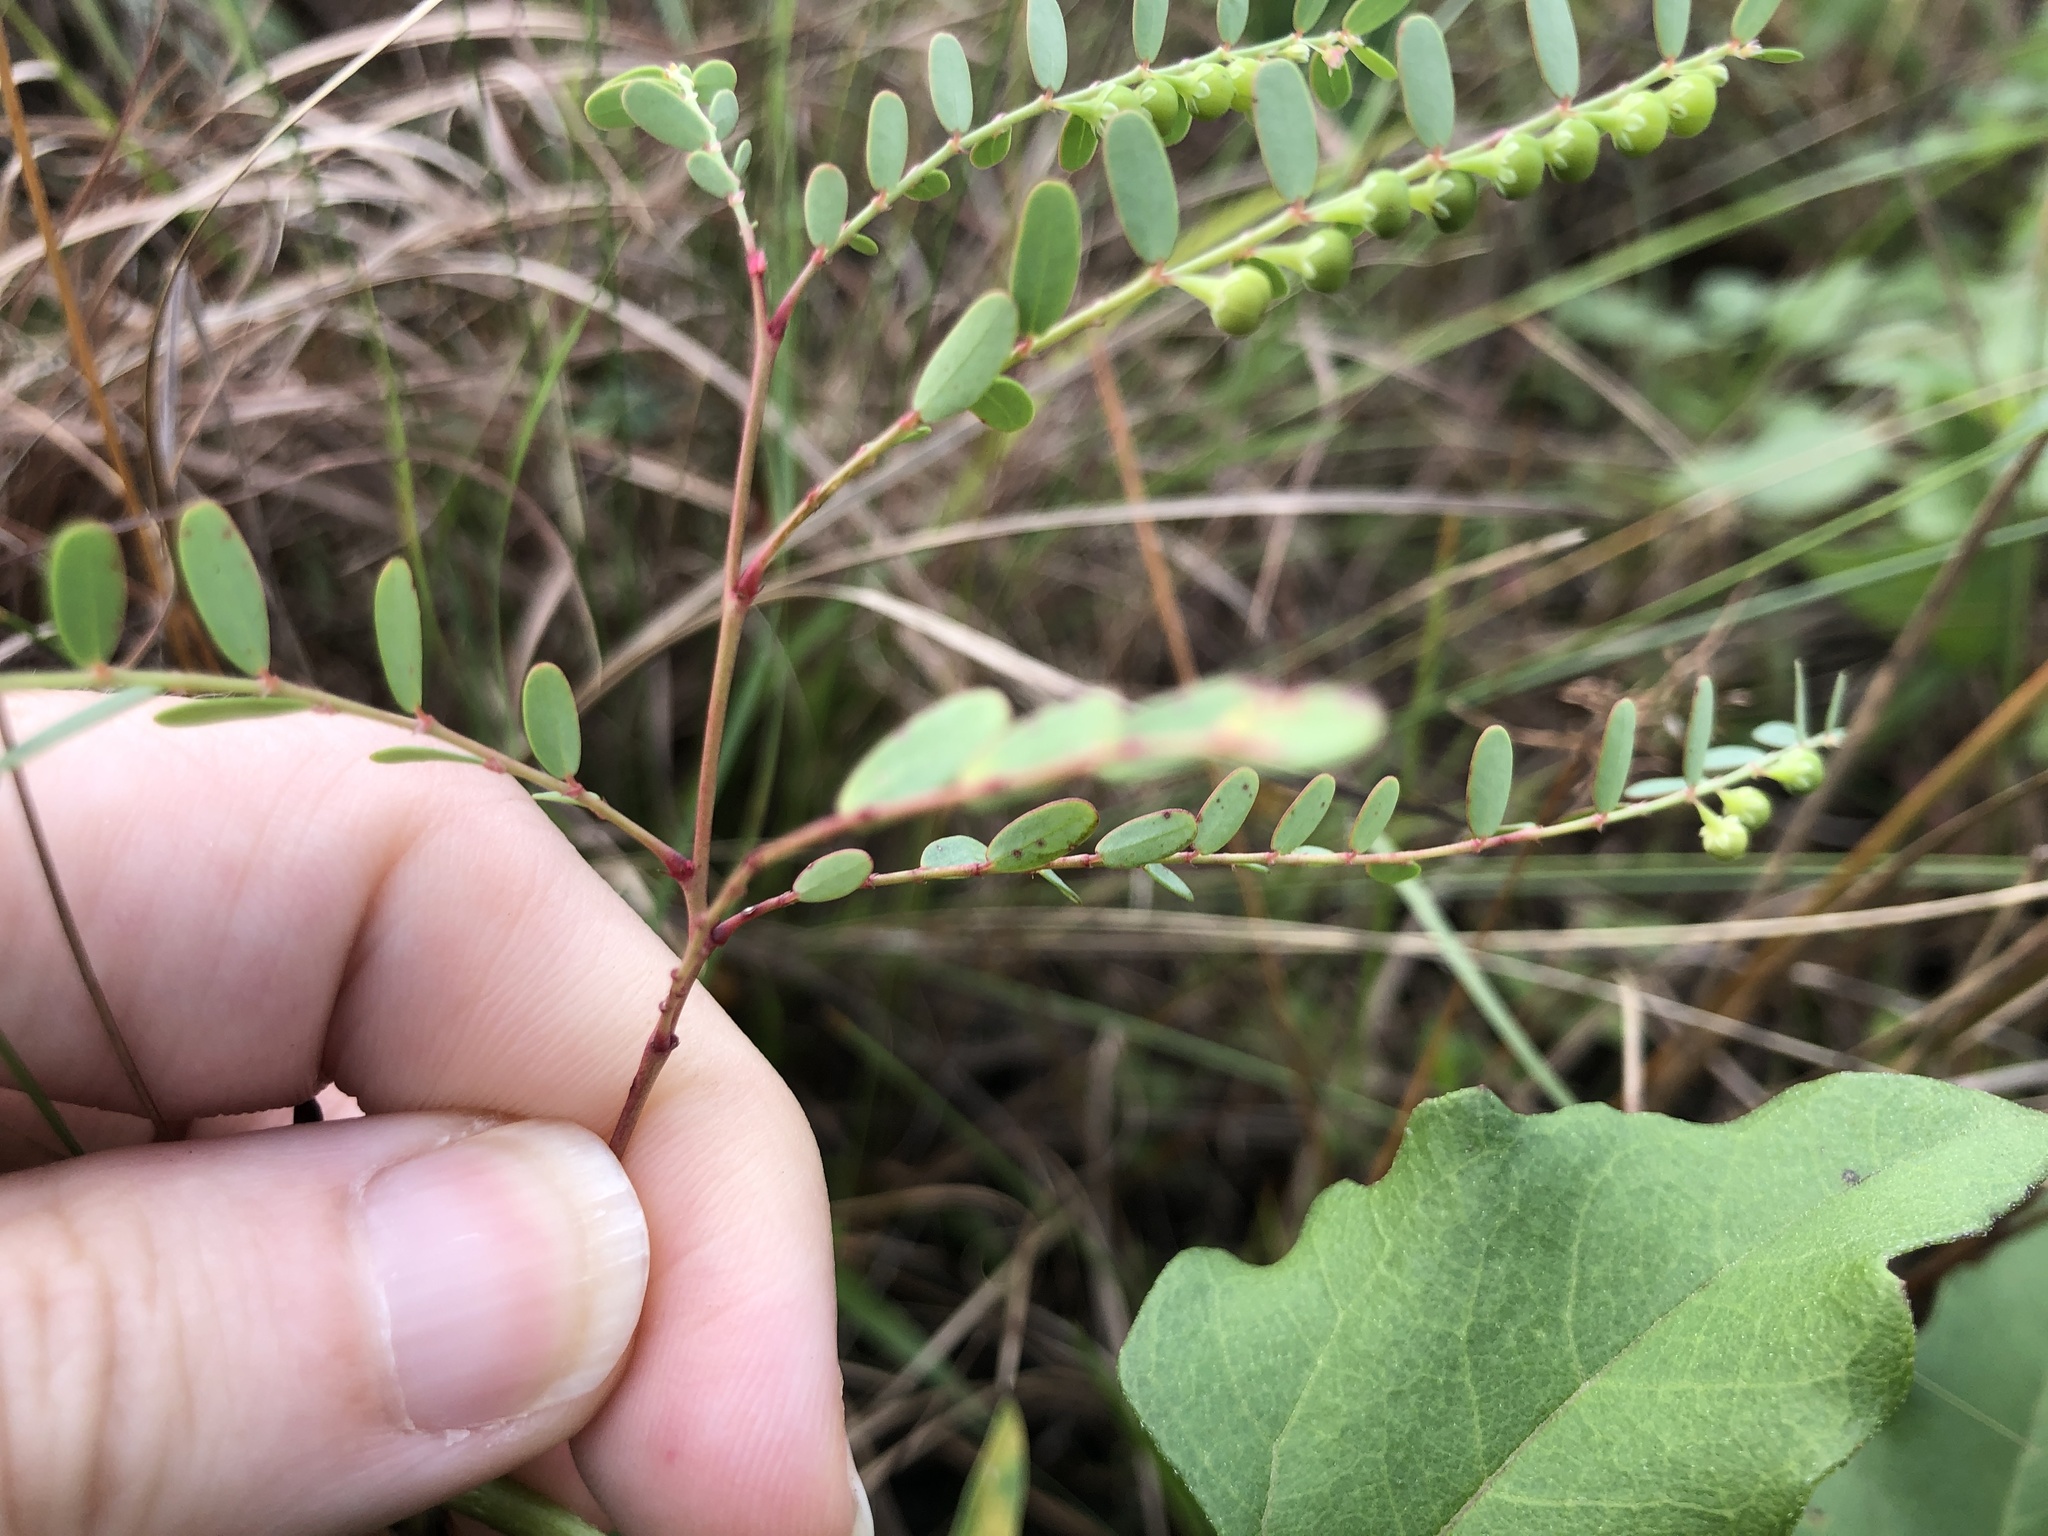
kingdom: Plantae
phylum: Tracheophyta
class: Magnoliopsida
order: Lamiales
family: Plantaginaceae
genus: Scoparia
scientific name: Scoparia dulcis
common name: Scoparia-weed
